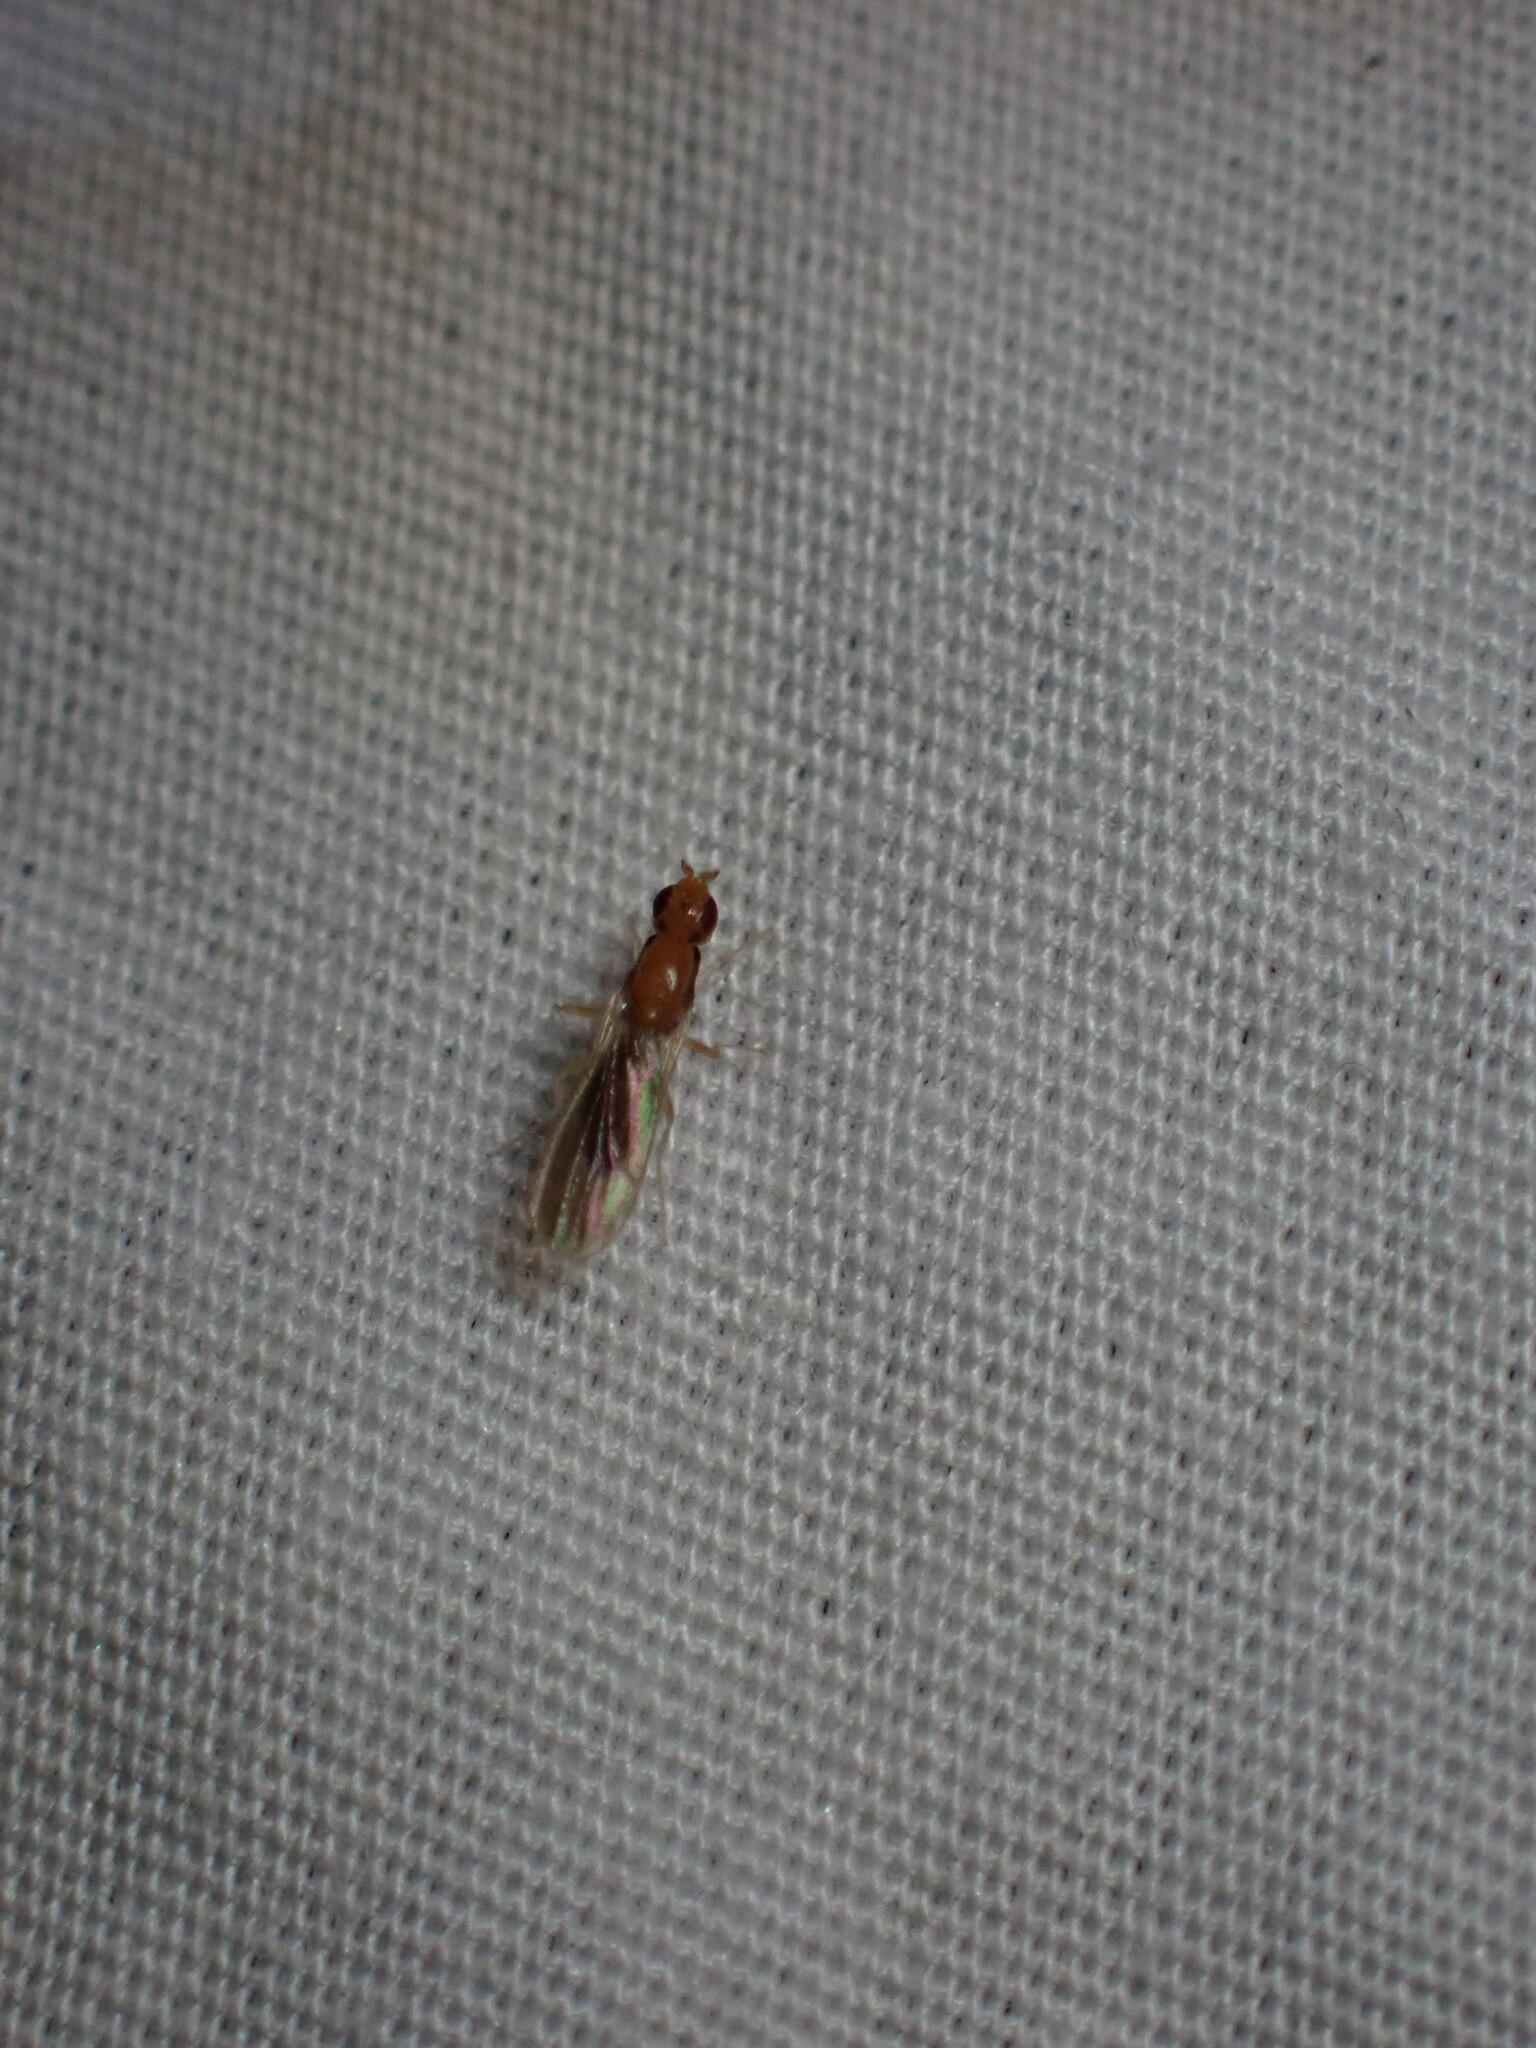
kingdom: Animalia
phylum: Arthropoda
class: Insecta
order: Diptera
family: Psilidae
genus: Psila
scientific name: Psila lateralis
